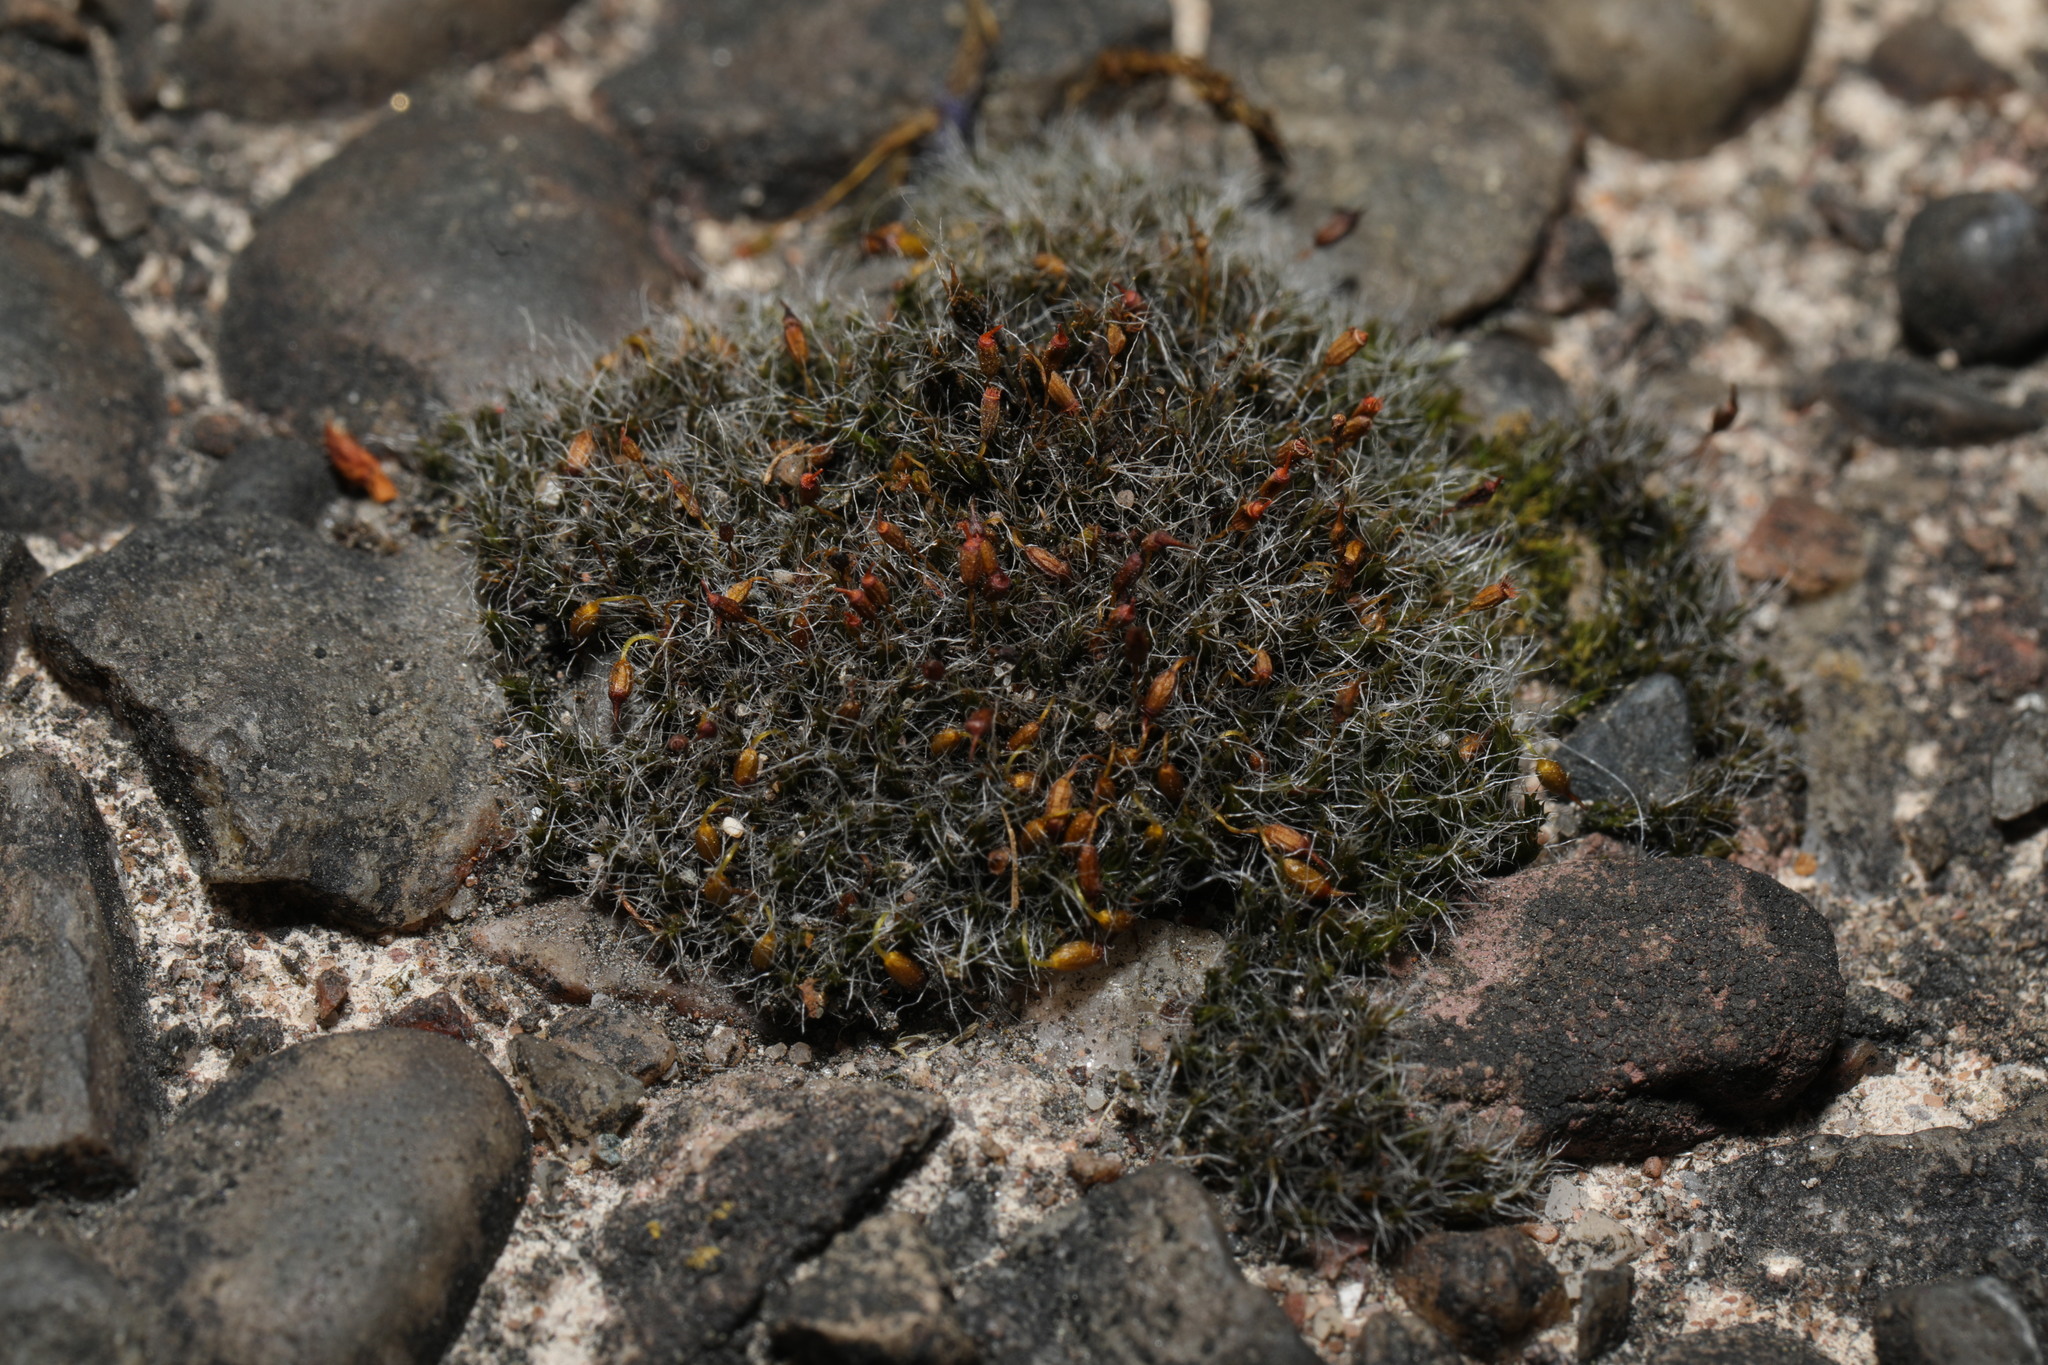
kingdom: Plantae
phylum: Bryophyta
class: Bryopsida
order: Grimmiales
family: Grimmiaceae
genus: Grimmia
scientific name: Grimmia pulvinata
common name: Grey-cushioned grimmia
